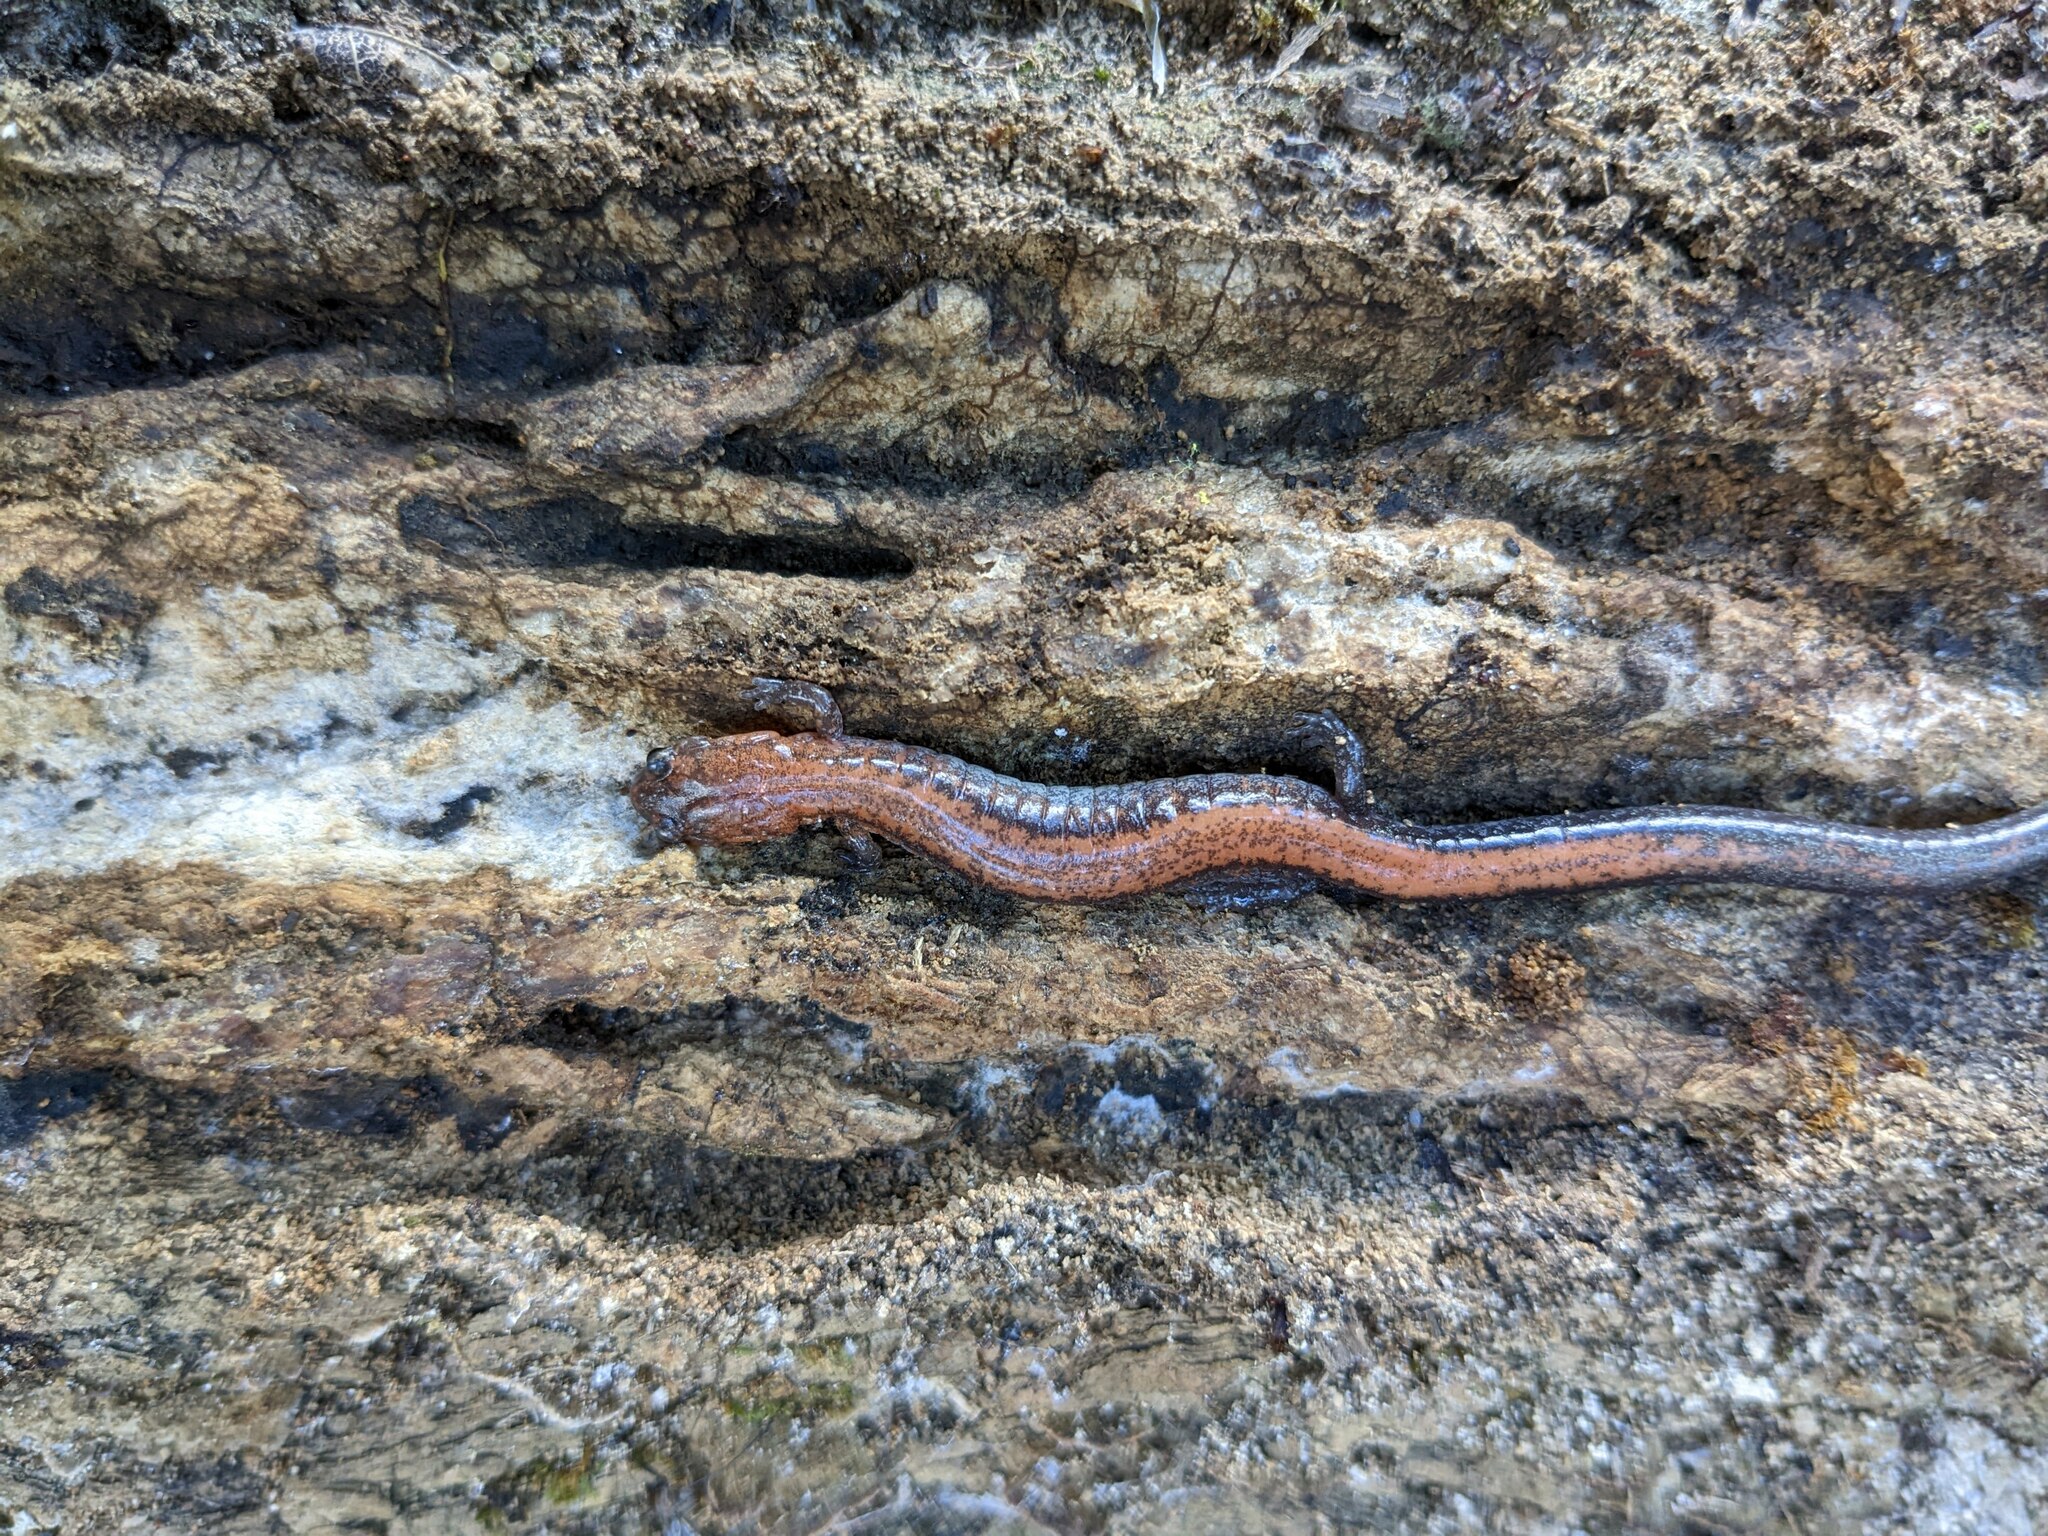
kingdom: Animalia
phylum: Chordata
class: Amphibia
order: Caudata
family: Plethodontidae
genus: Plethodon
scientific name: Plethodon cinereus
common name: Redback salamander
